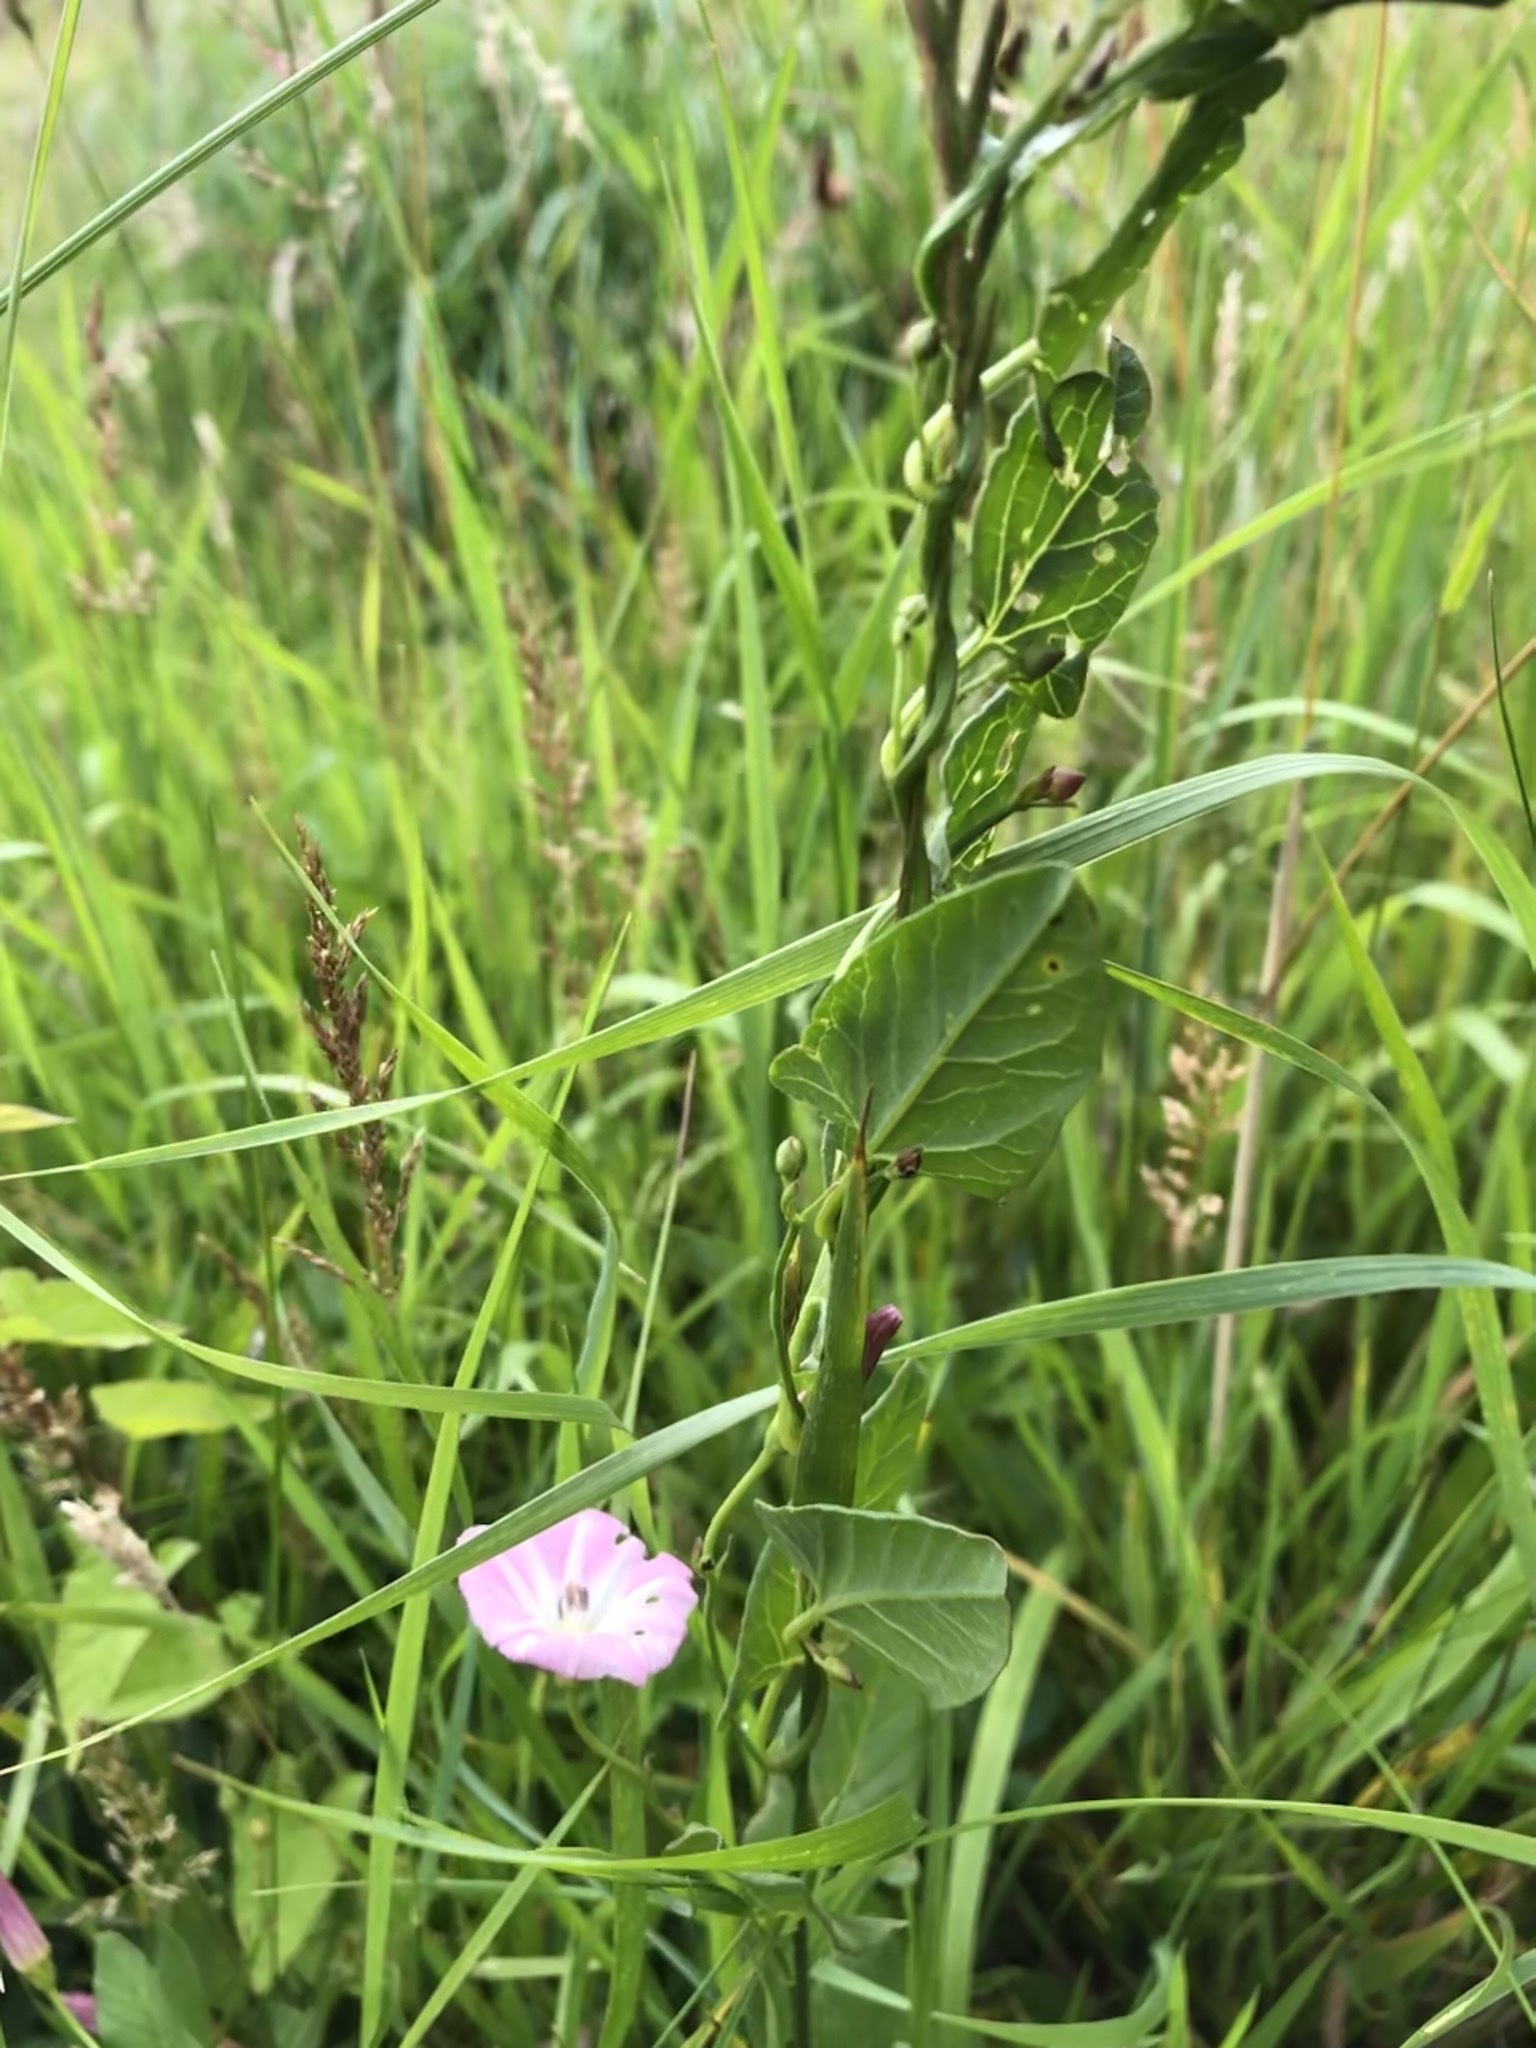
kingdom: Plantae
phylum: Tracheophyta
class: Magnoliopsida
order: Solanales
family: Convolvulaceae
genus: Convolvulus
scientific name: Convolvulus arvensis
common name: Field bindweed
